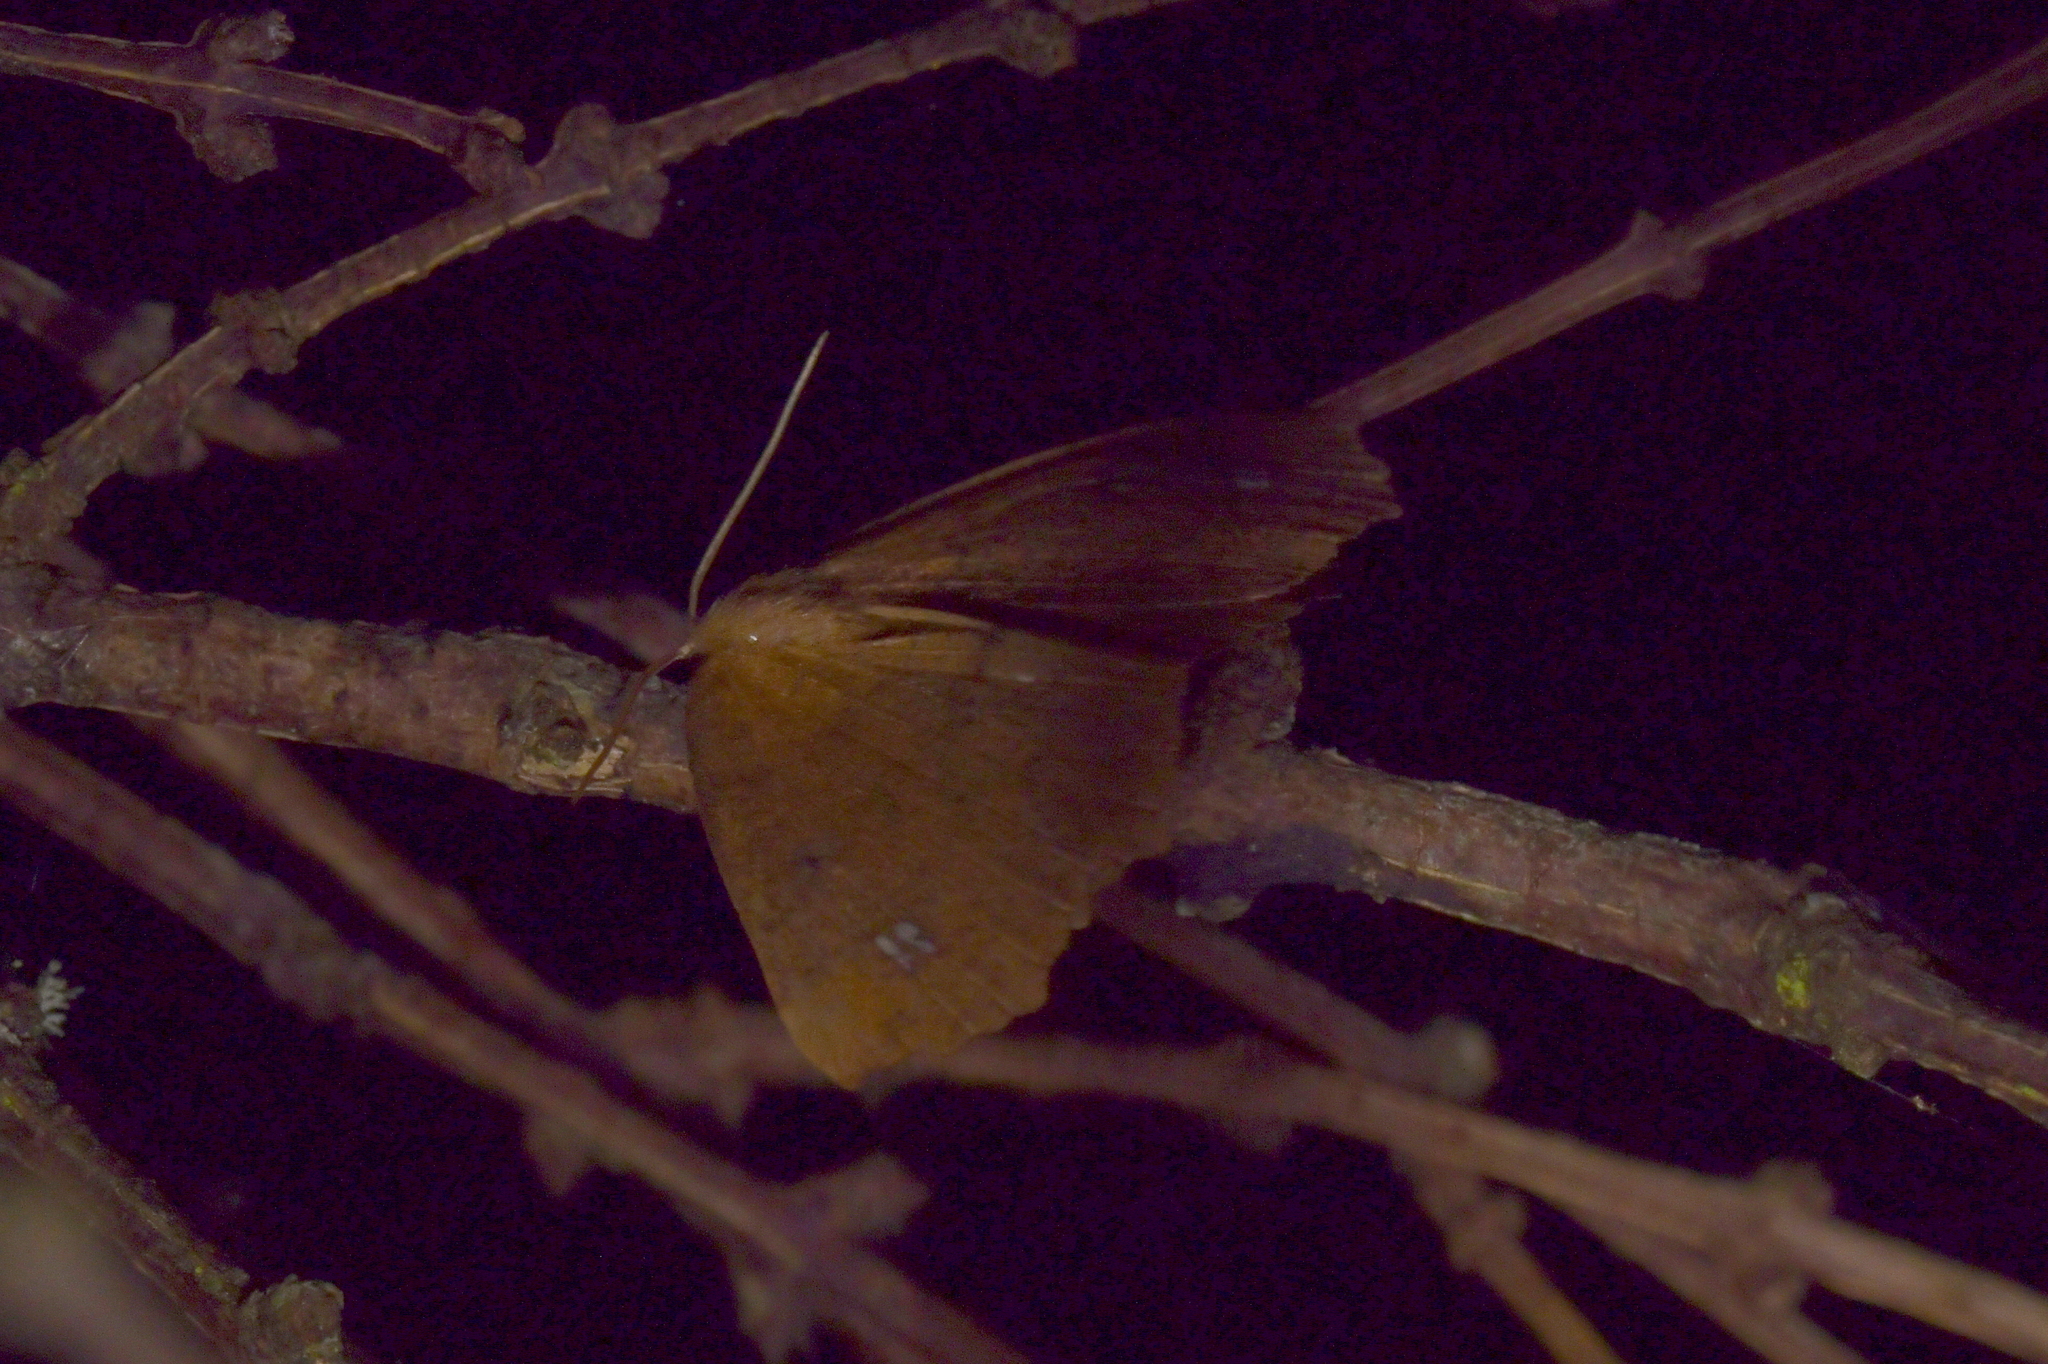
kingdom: Animalia
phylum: Arthropoda
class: Insecta
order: Lepidoptera
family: Geometridae
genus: Xyridacma
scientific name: Xyridacma ustaria
